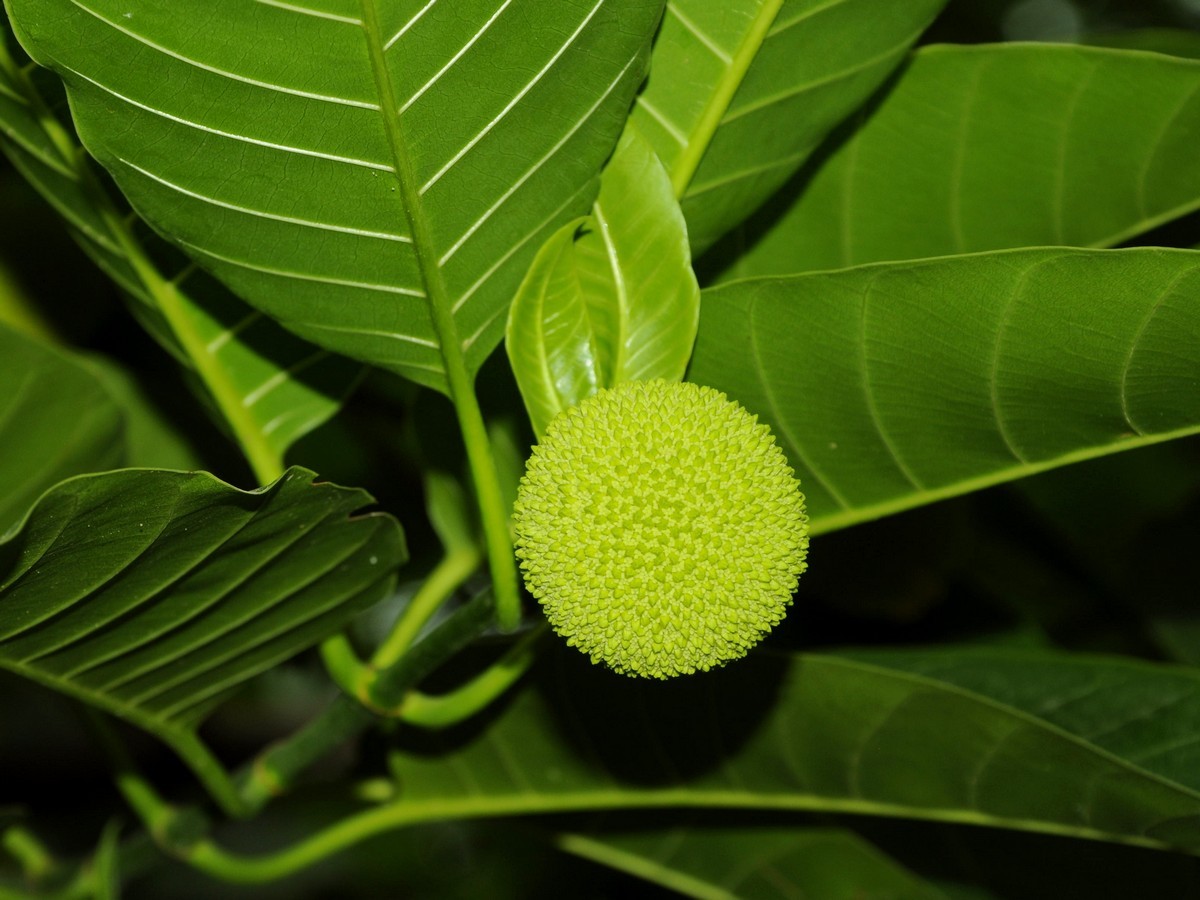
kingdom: Plantae
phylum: Tracheophyta
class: Magnoliopsida
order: Gentianales
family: Rubiaceae
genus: Neolamarckia
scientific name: Neolamarckia cadamba
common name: Leichhardt-pine
